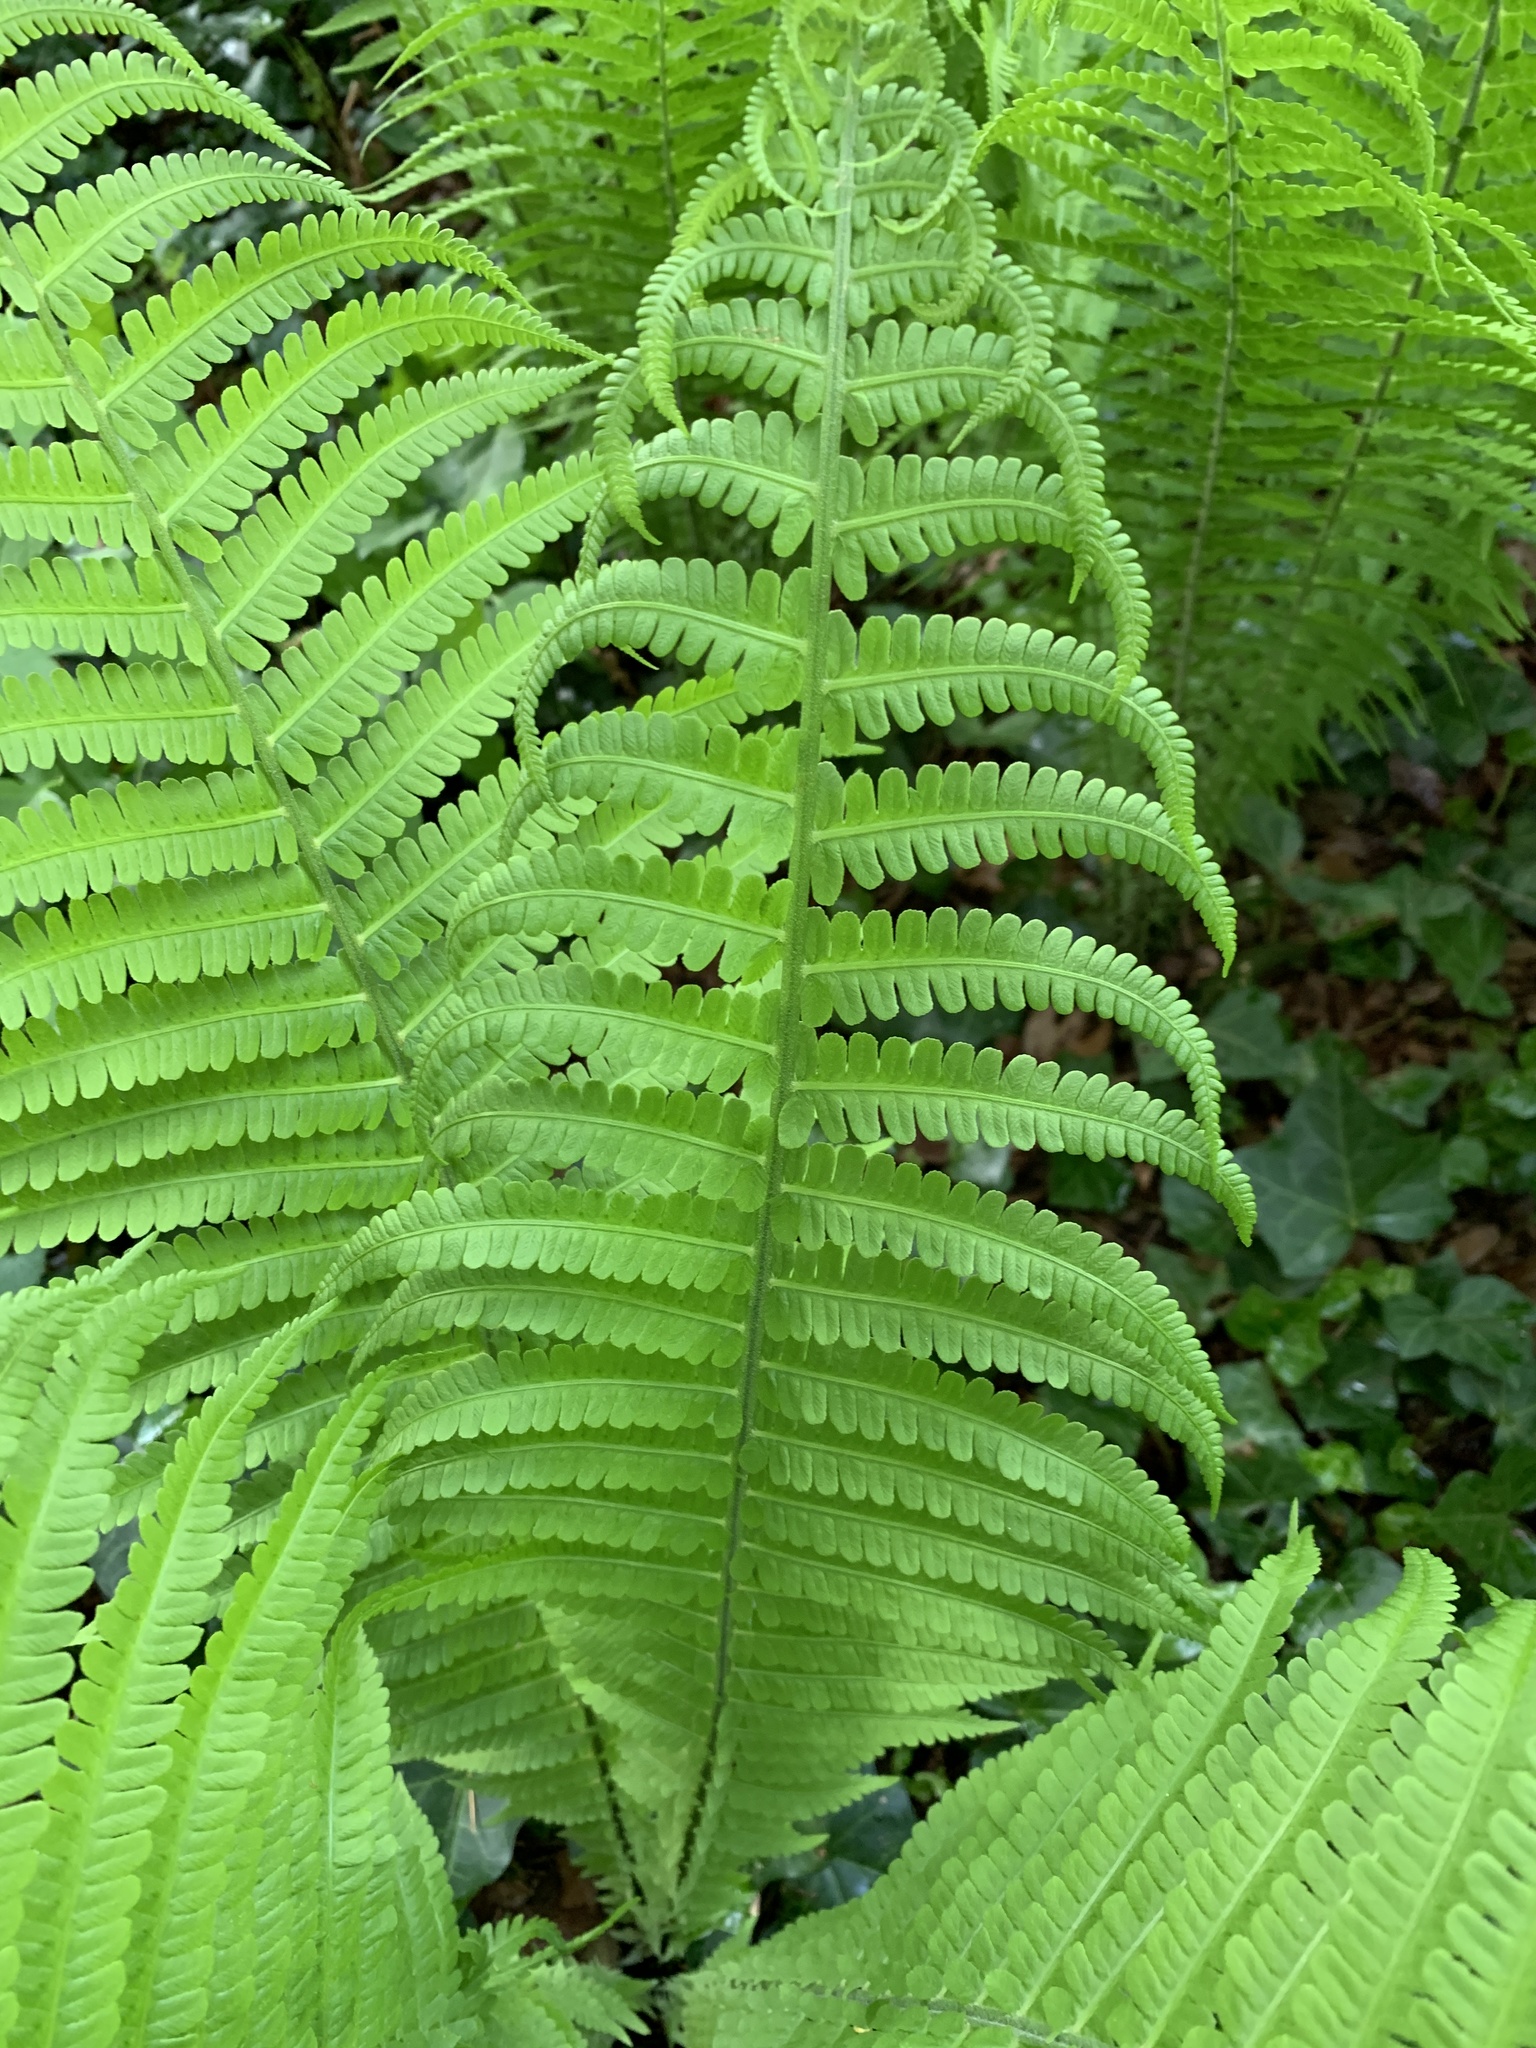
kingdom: Plantae
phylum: Tracheophyta
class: Polypodiopsida
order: Polypodiales
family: Onocleaceae
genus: Matteuccia
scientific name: Matteuccia struthiopteris
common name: Ostrich fern
